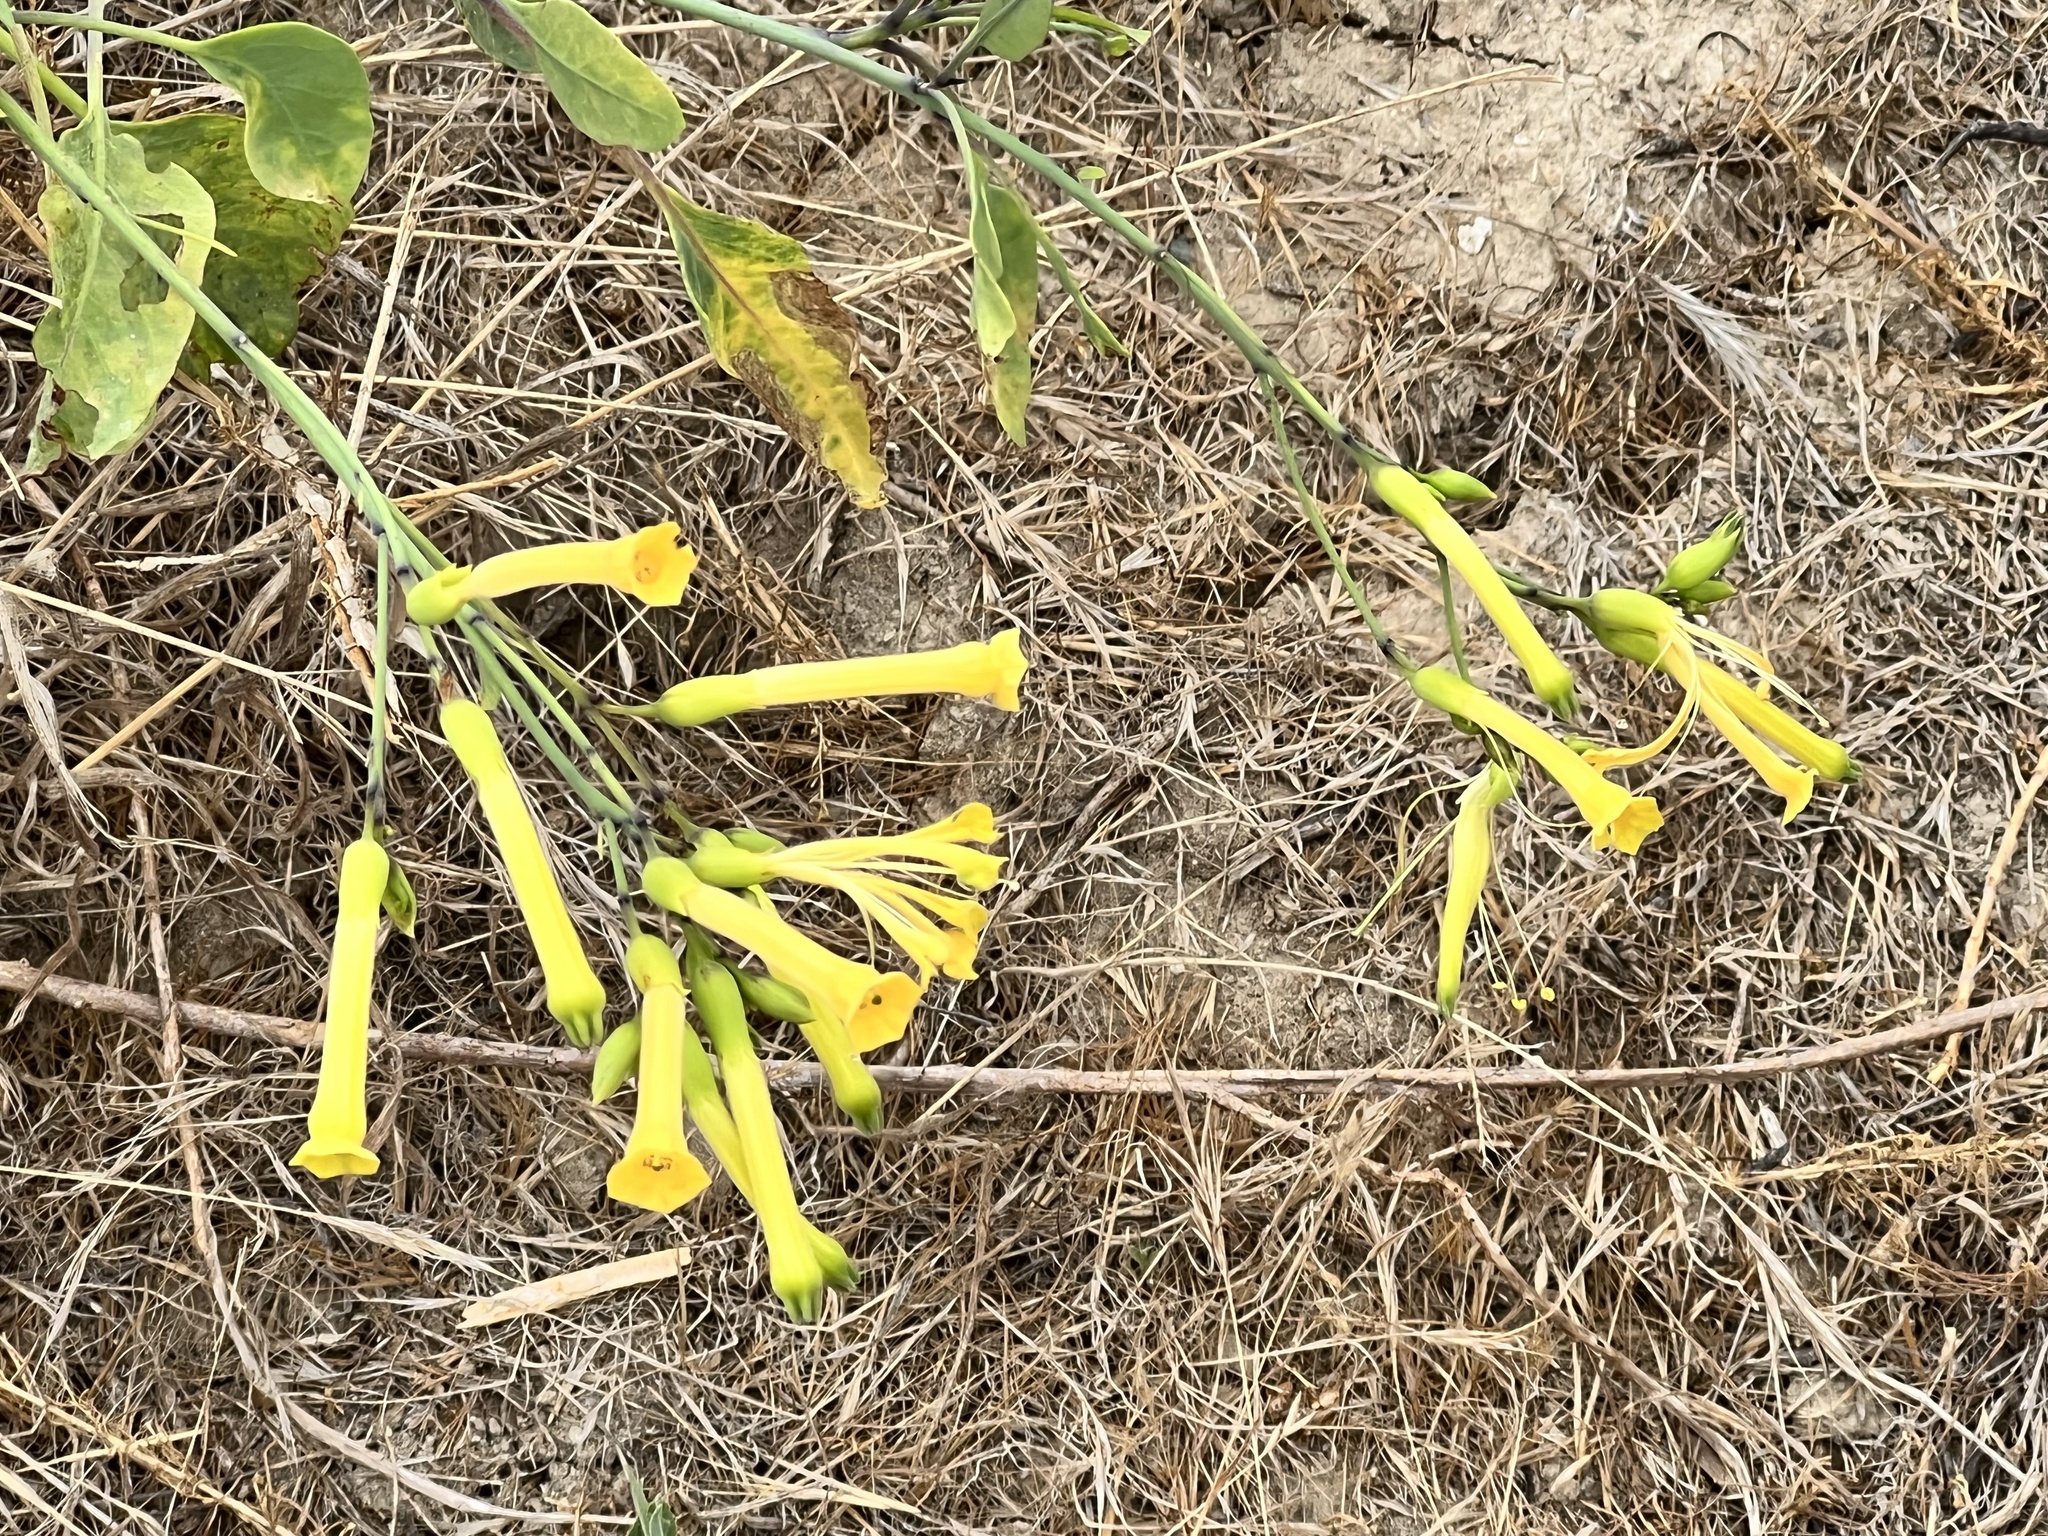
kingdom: Plantae
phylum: Tracheophyta
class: Magnoliopsida
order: Solanales
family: Solanaceae
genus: Nicotiana
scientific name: Nicotiana glauca
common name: Tree tobacco
